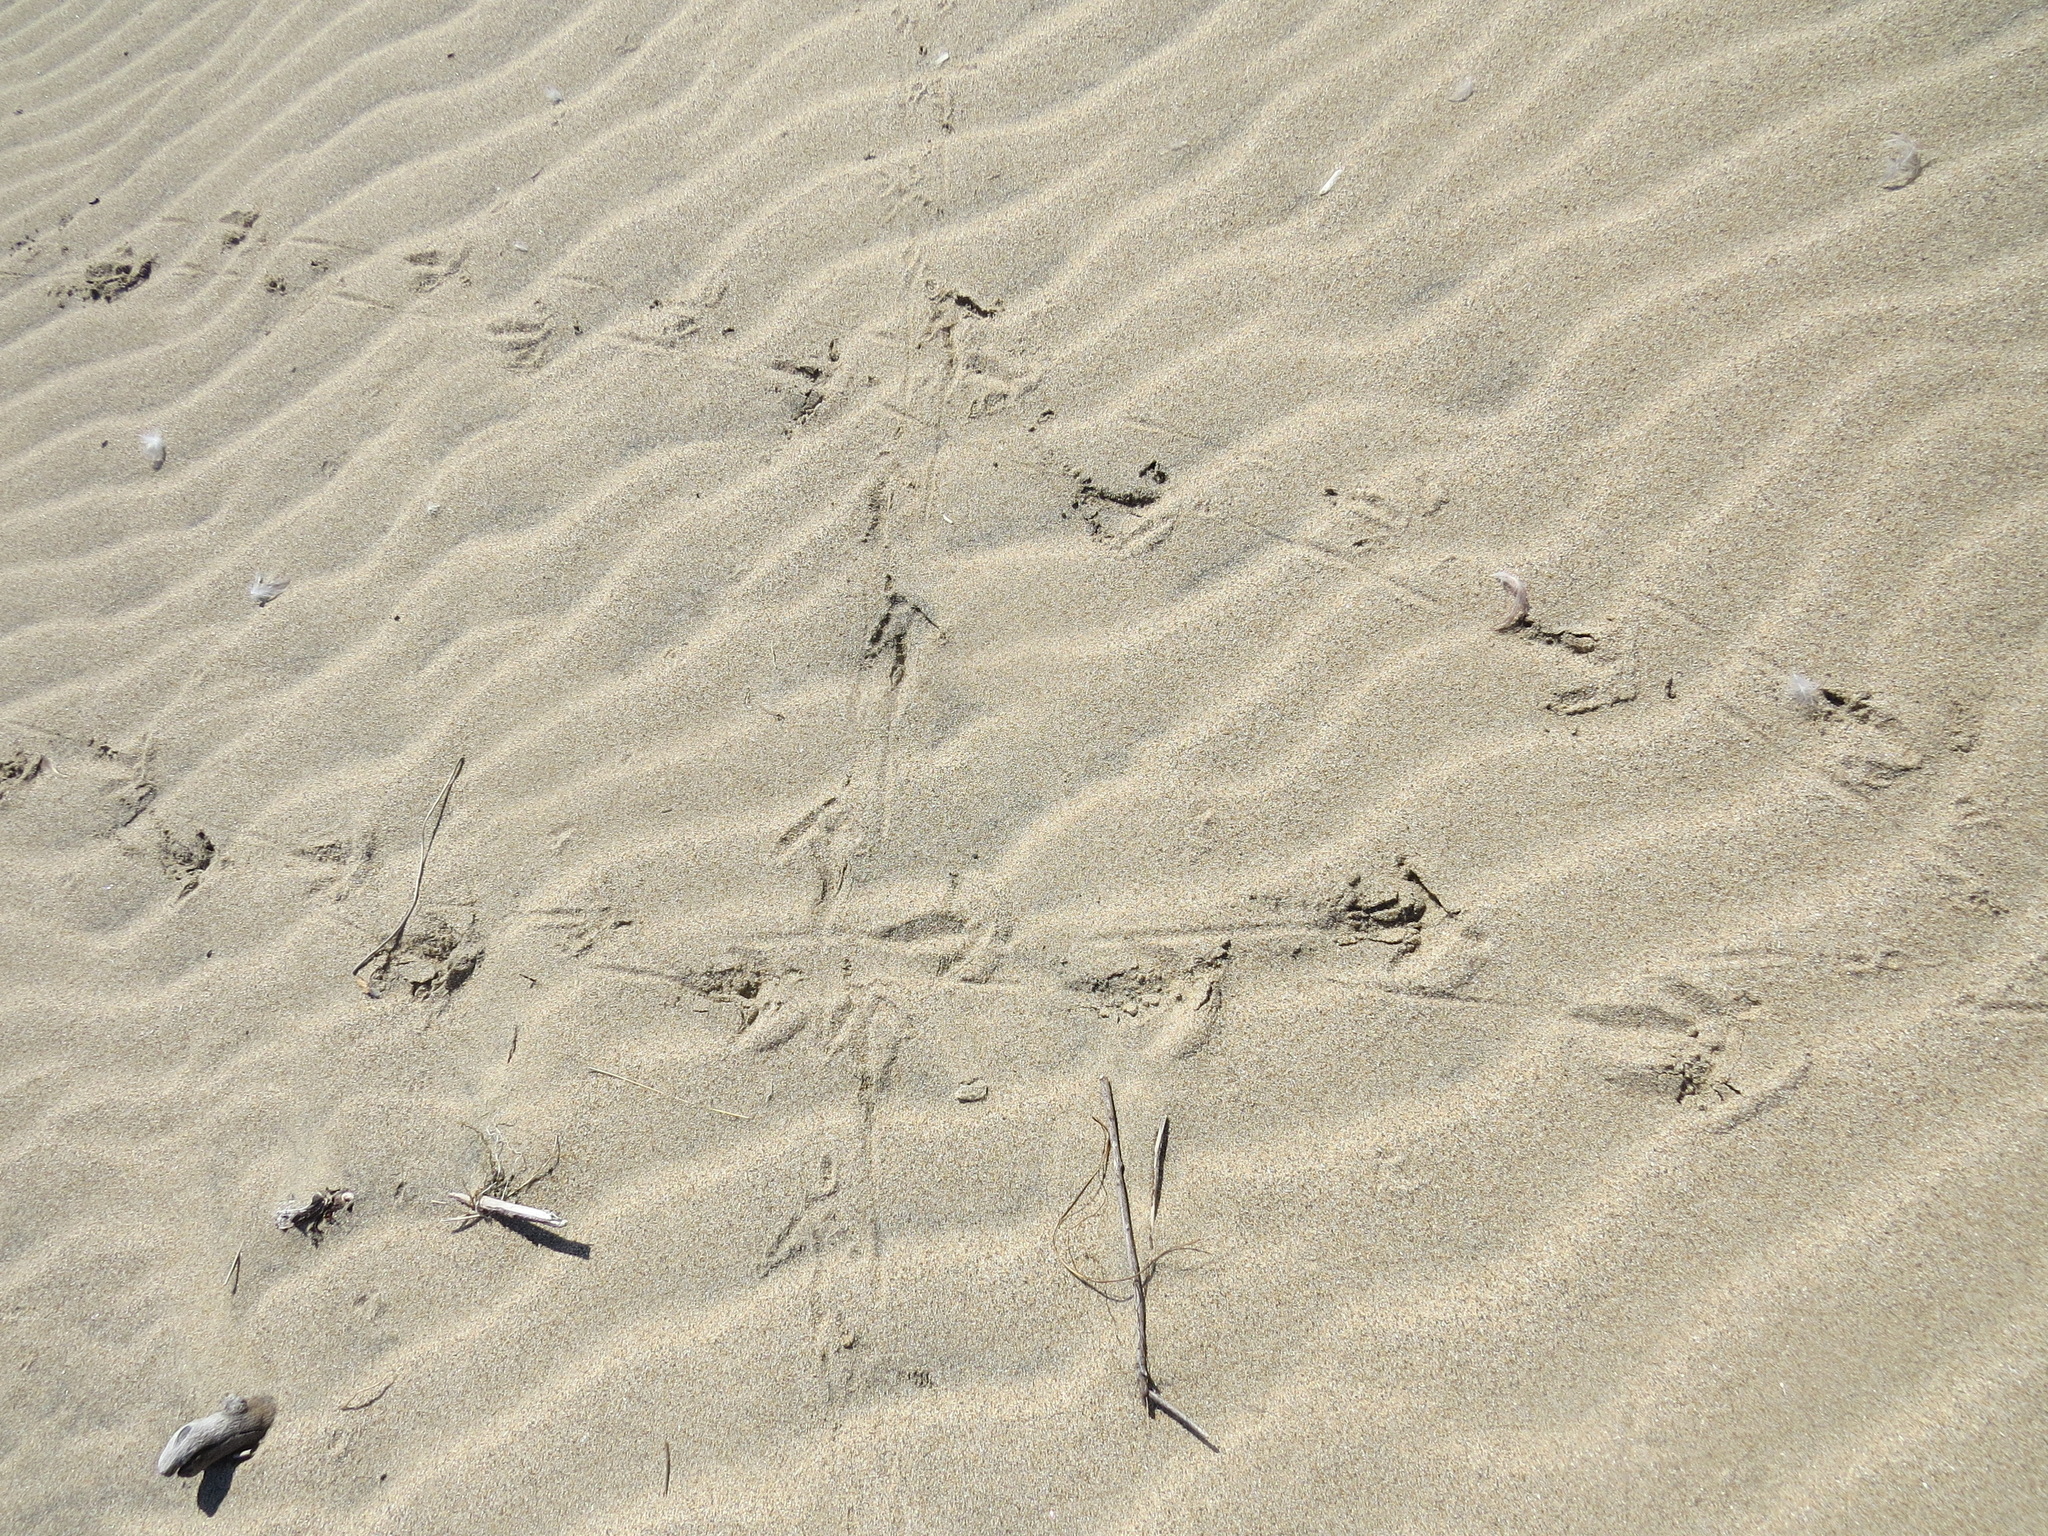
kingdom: Animalia
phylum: Chordata
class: Aves
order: Accipitriformes
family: Cathartidae
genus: Cathartes
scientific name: Cathartes aura
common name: Turkey vulture
